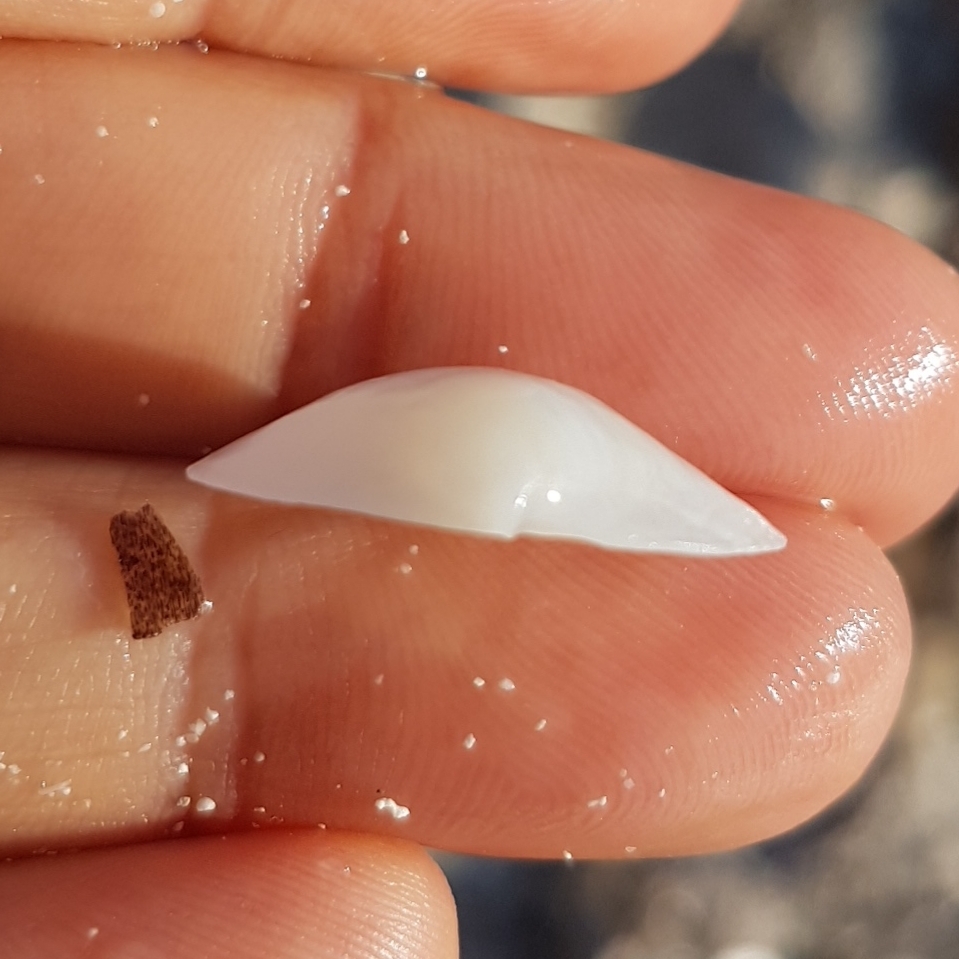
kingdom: Animalia
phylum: Mollusca
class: Bivalvia
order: Lucinida
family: Lucinidae
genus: Loripes
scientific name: Loripes orbiculatus
